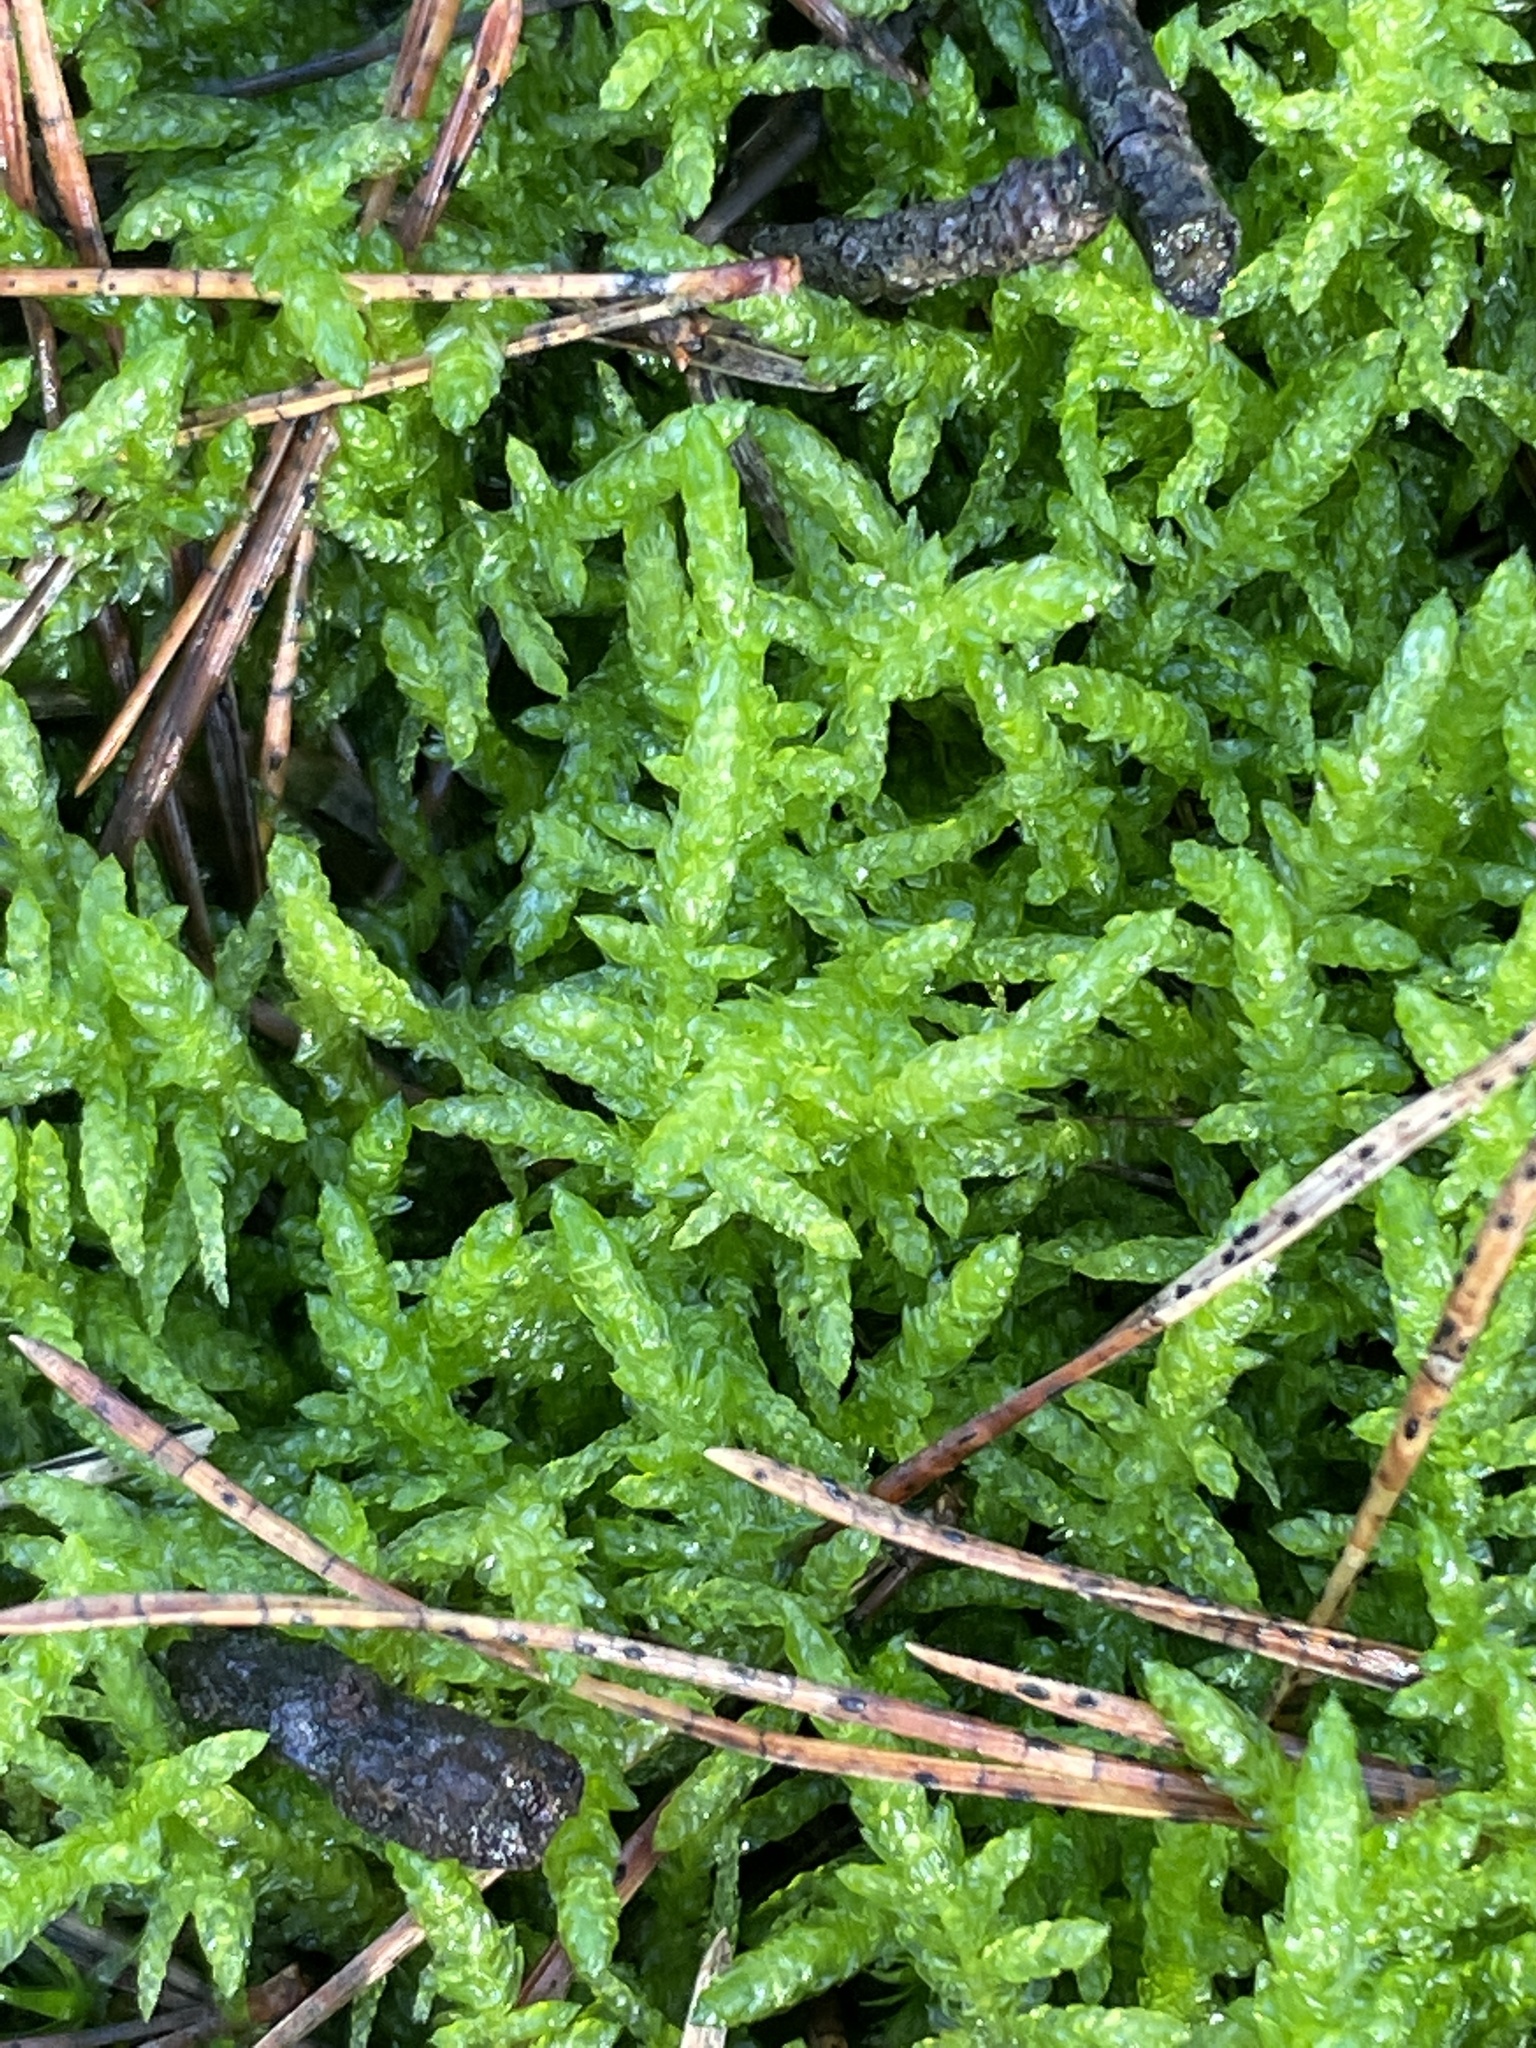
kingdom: Plantae
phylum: Bryophyta
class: Bryopsida
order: Hypnales
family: Brachytheciaceae
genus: Pseudoscleropodium
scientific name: Pseudoscleropodium purum
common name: Neat feather-moss
